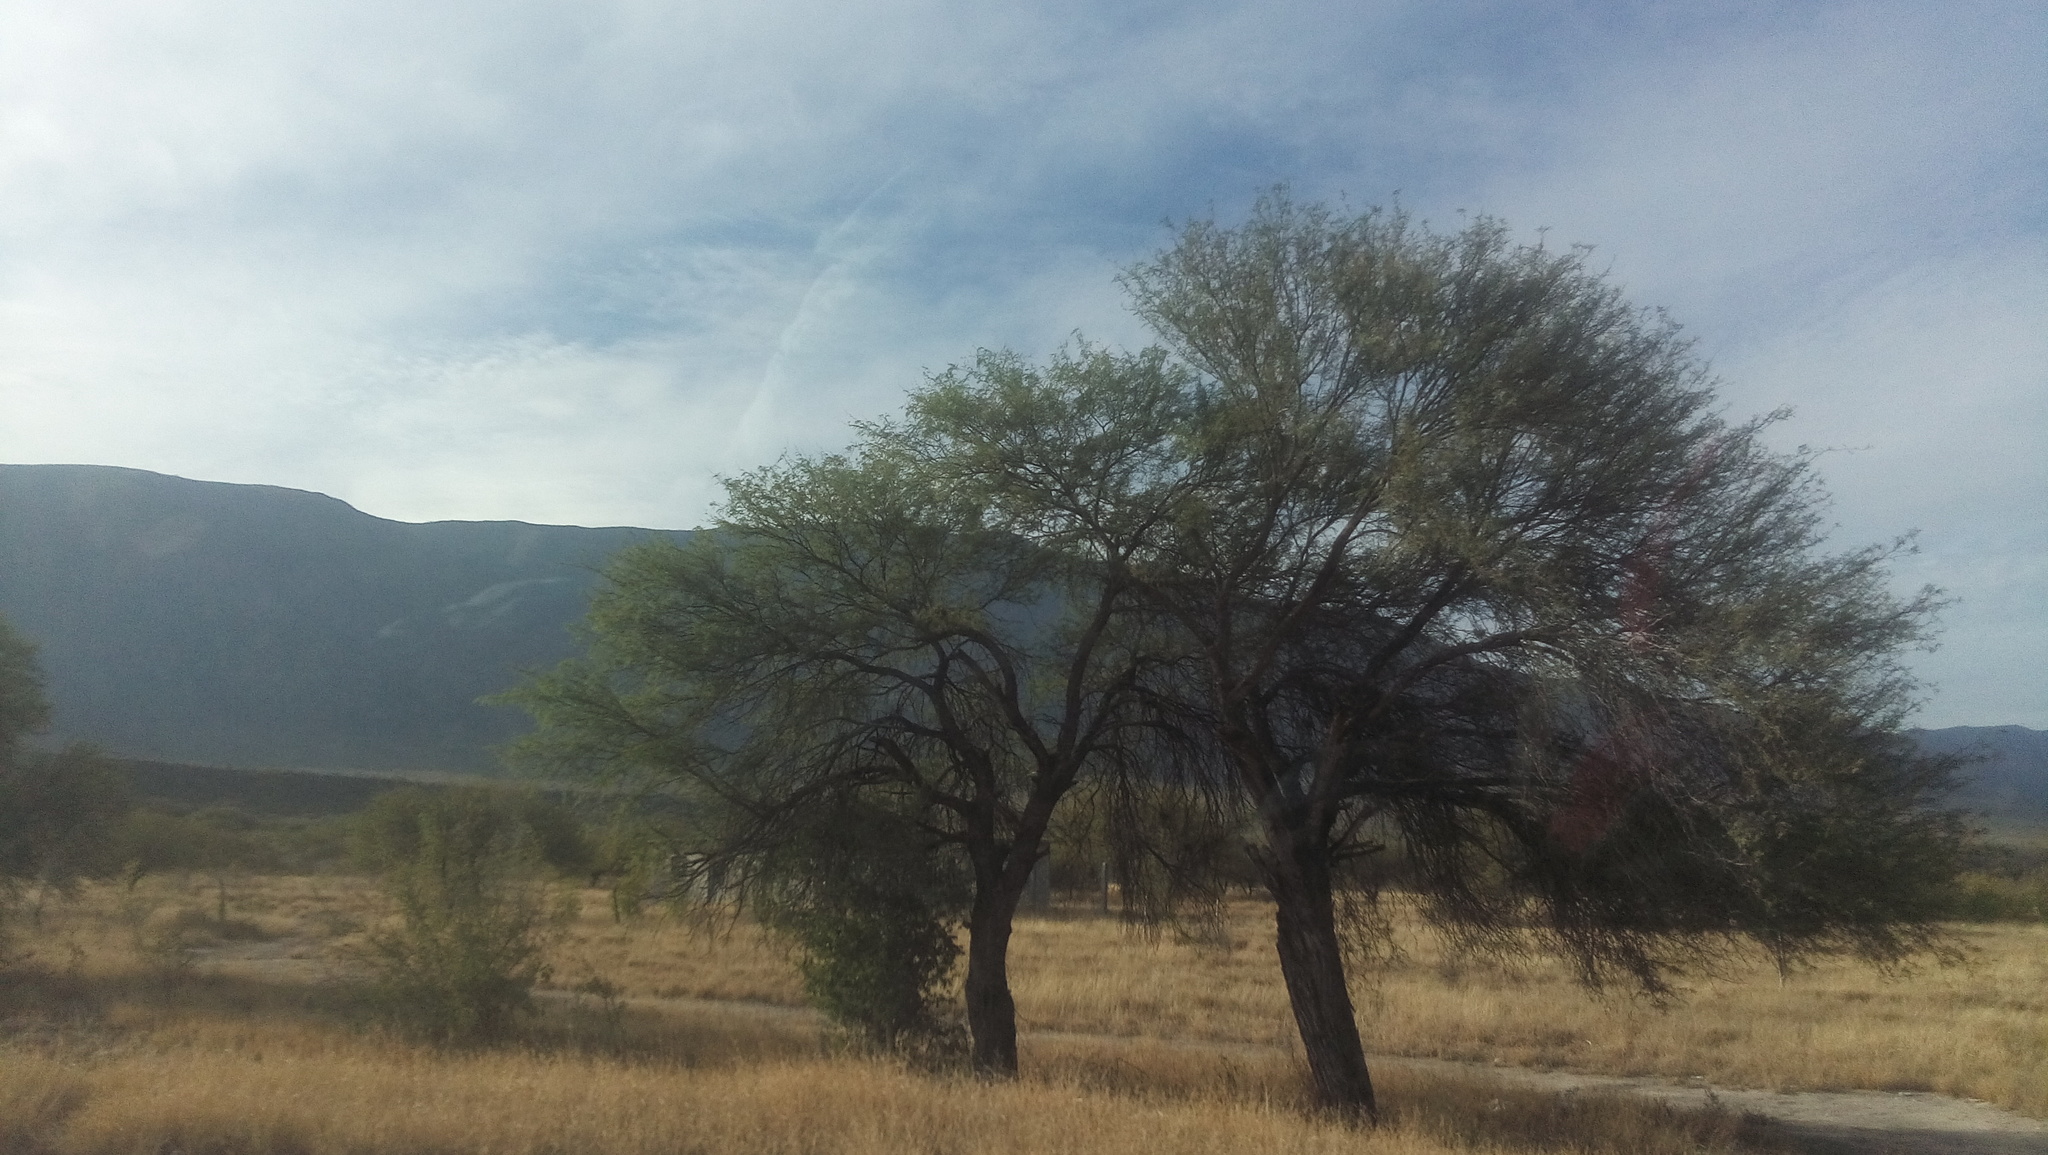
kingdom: Plantae
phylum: Tracheophyta
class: Magnoliopsida
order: Fabales
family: Fabaceae
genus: Prosopis
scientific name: Prosopis laevigata
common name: Smooth mesquite
